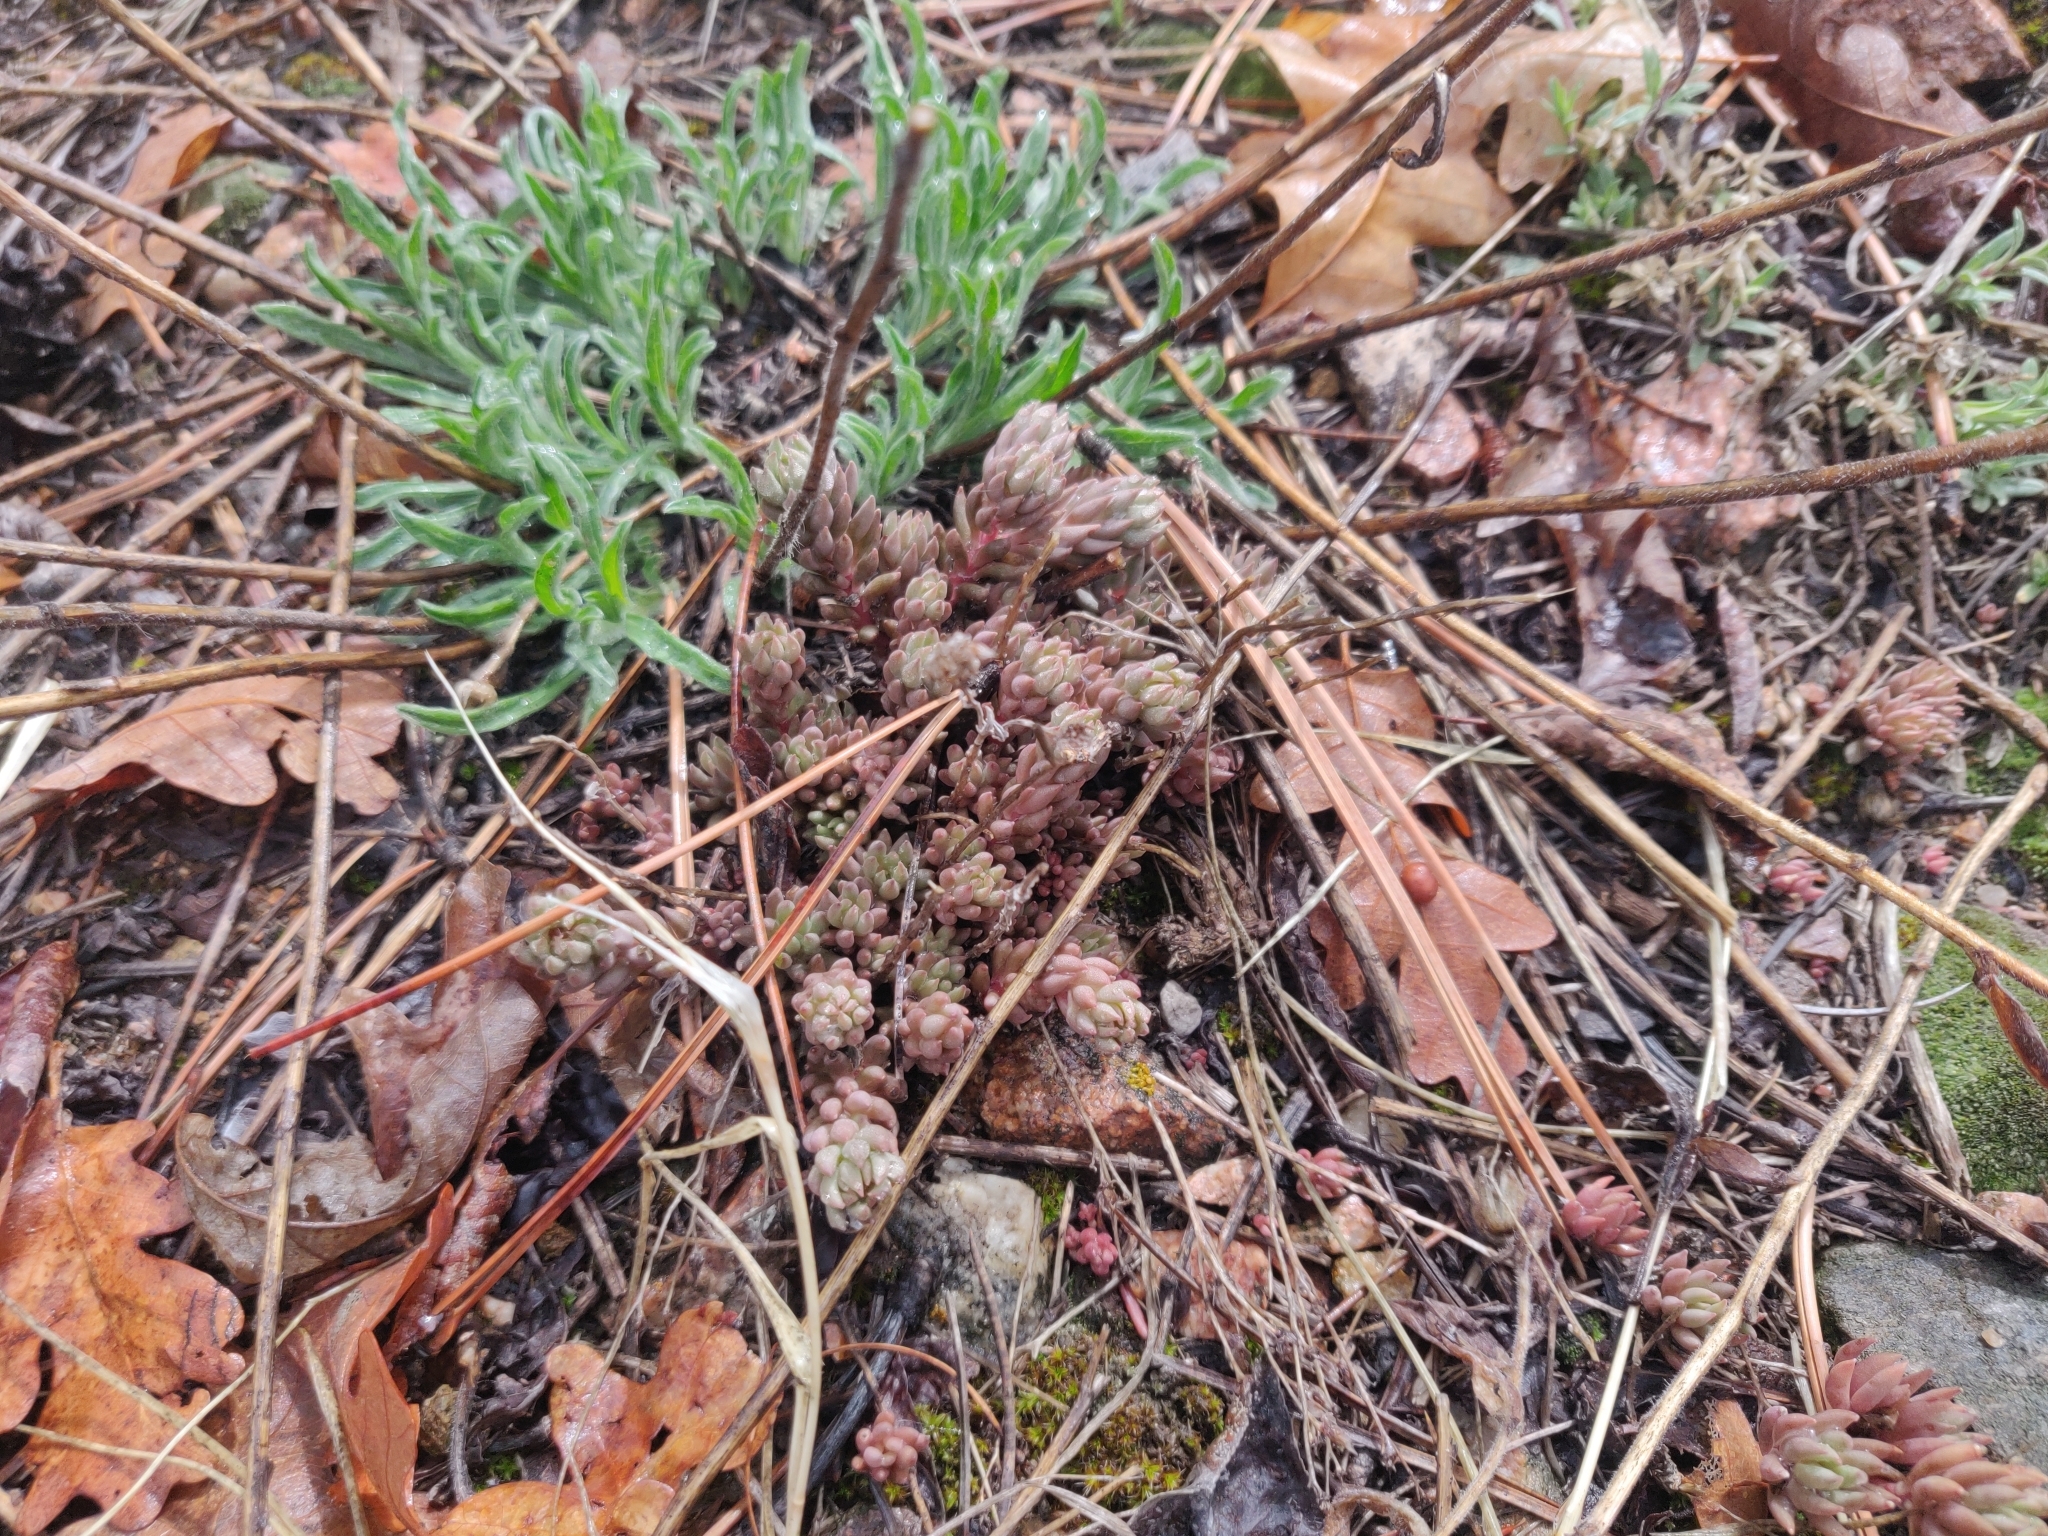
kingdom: Plantae
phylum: Tracheophyta
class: Magnoliopsida
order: Saxifragales
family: Crassulaceae
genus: Sedum
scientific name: Sedum lanceolatum
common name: Common stonecrop
